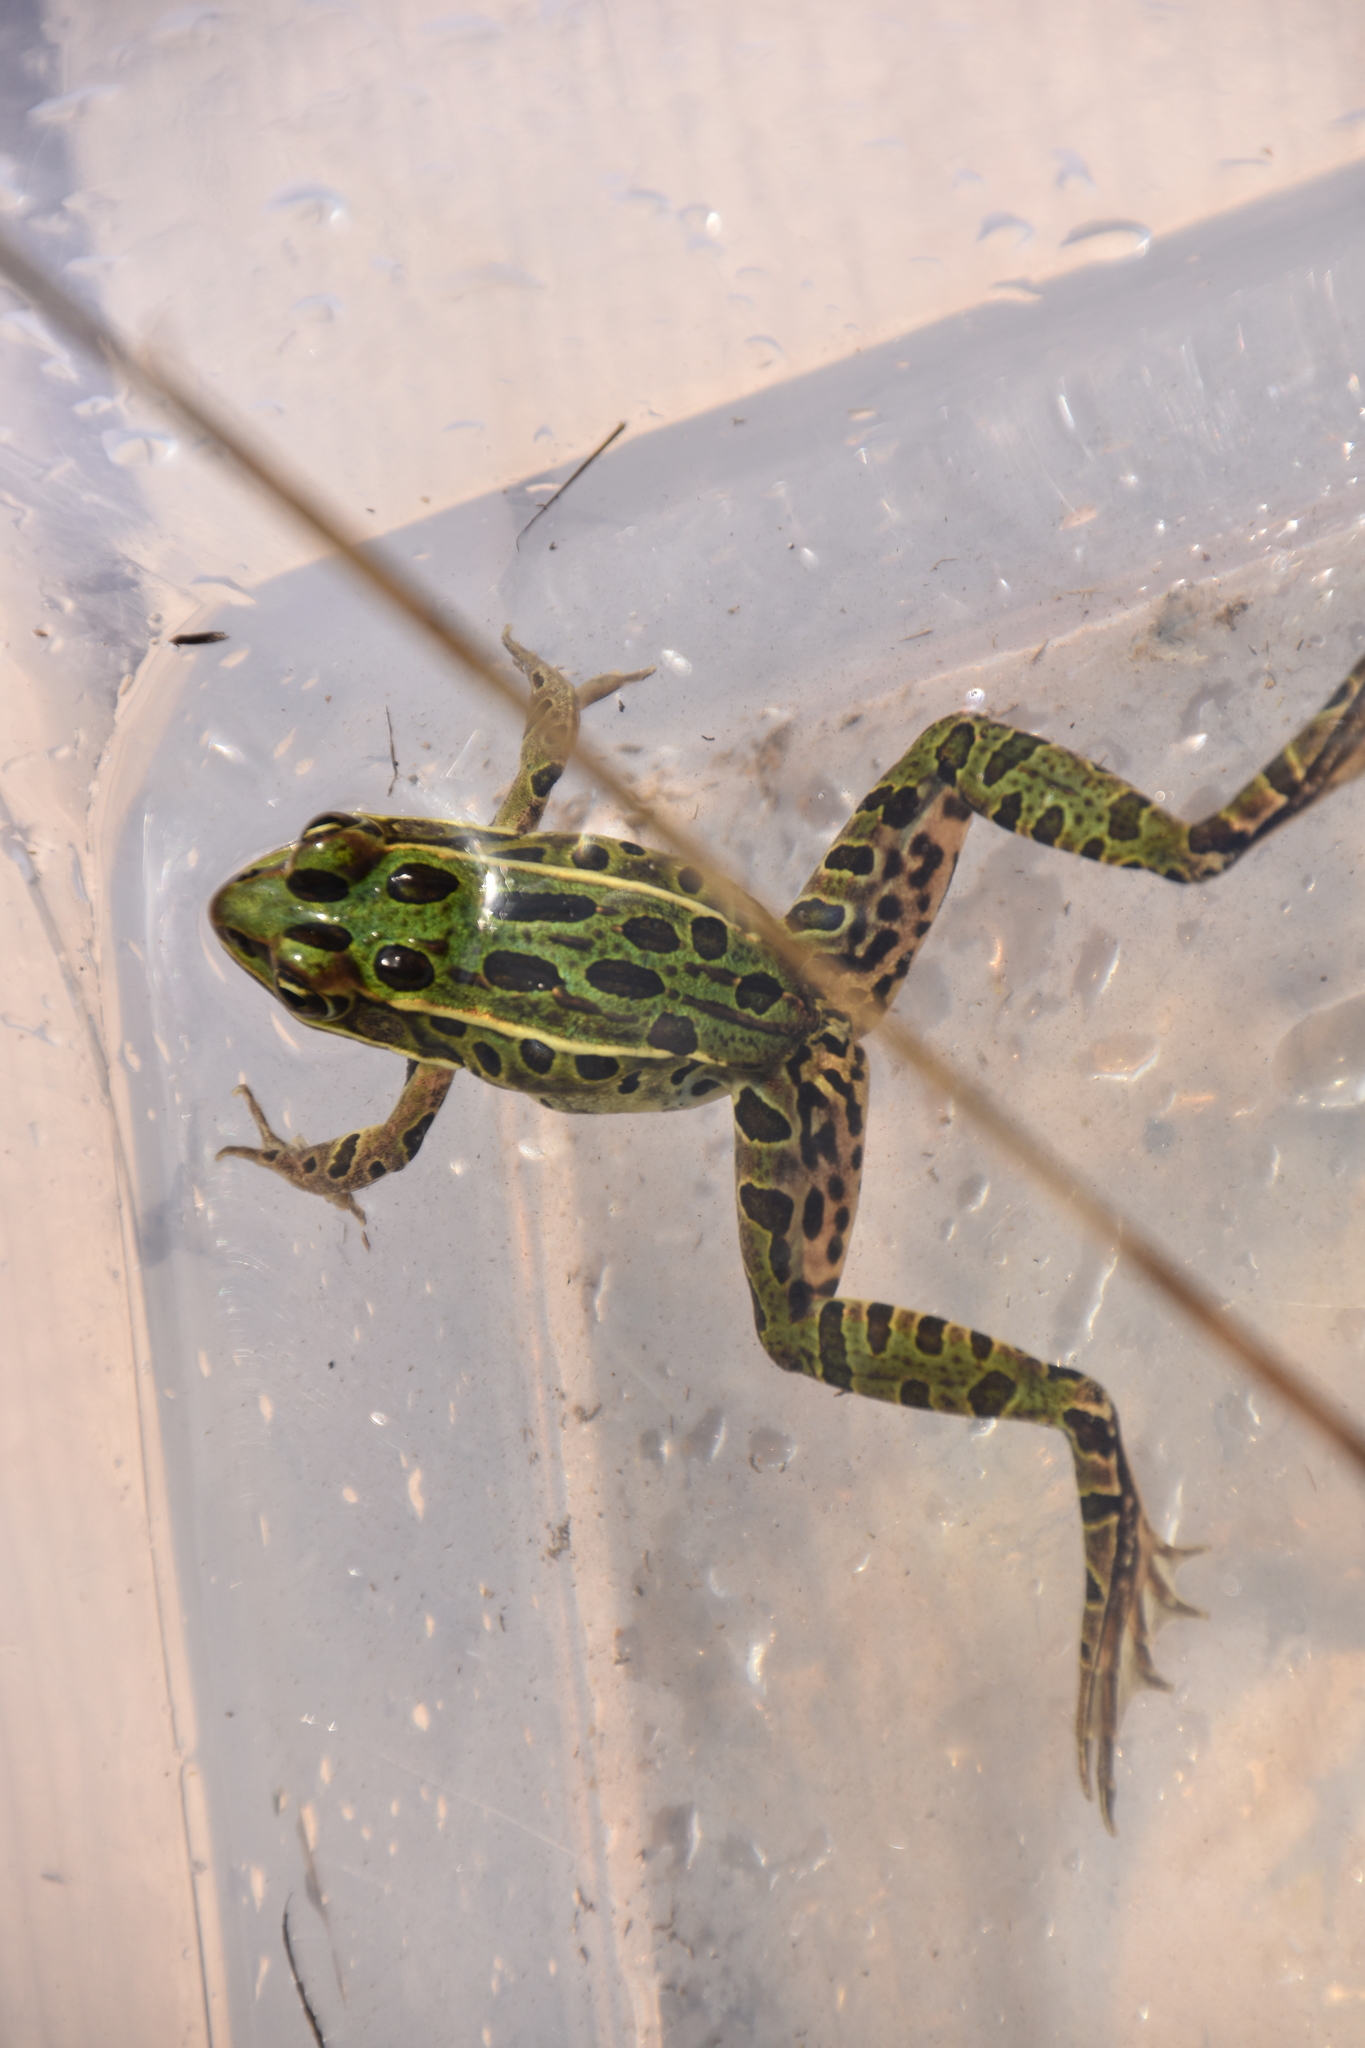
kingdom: Animalia
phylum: Chordata
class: Amphibia
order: Anura
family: Ranidae
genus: Lithobates
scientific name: Lithobates pipiens
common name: Northern leopard frog
